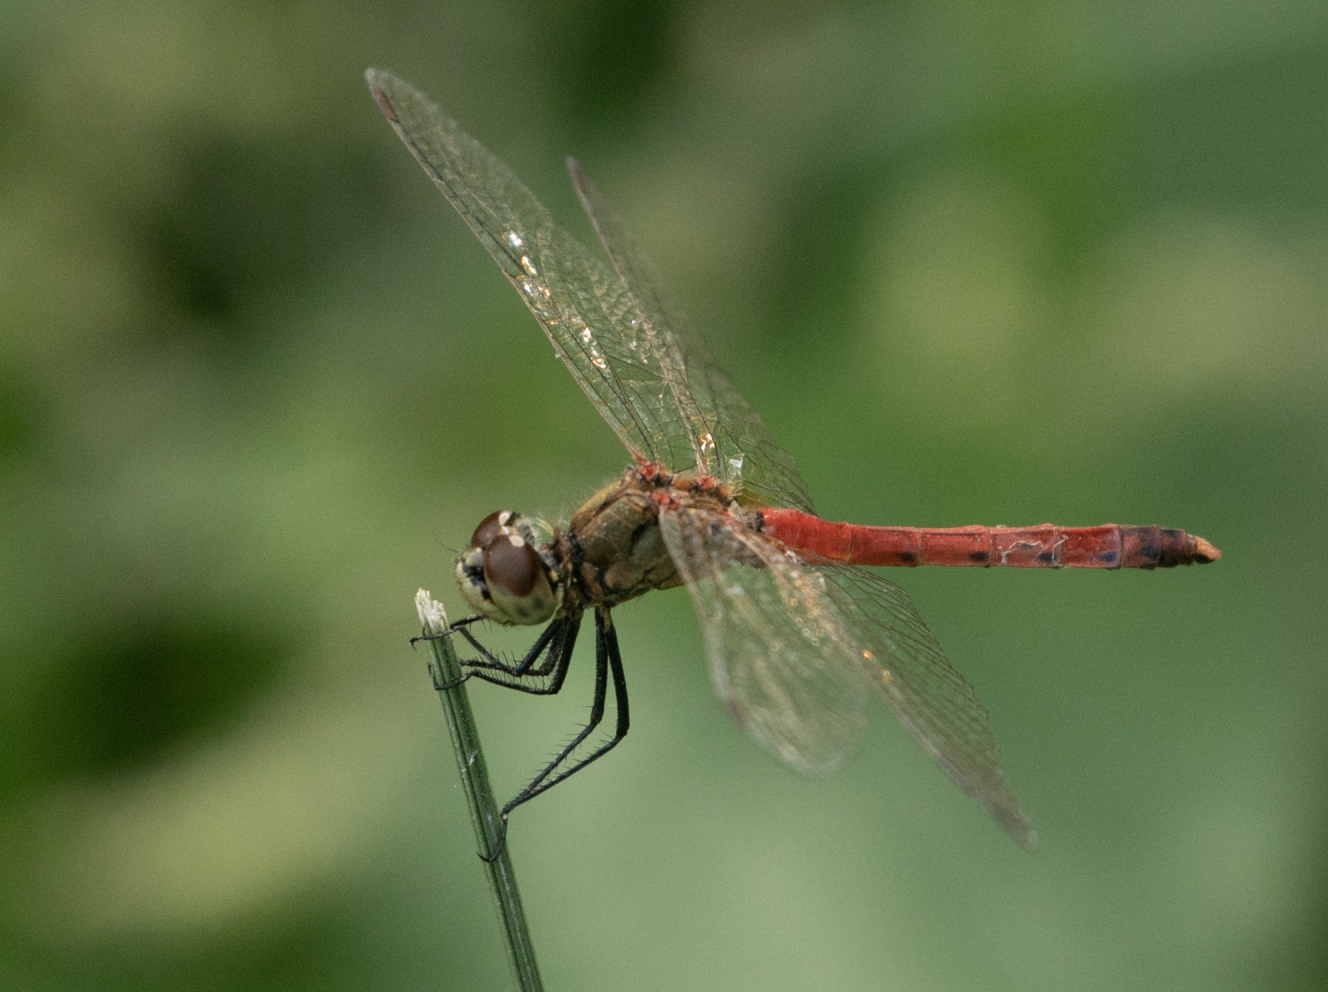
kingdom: Animalia
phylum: Arthropoda
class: Insecta
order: Odonata
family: Libellulidae
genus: Sympetrum
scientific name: Sympetrum depressiusculum
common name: Spotted darter
